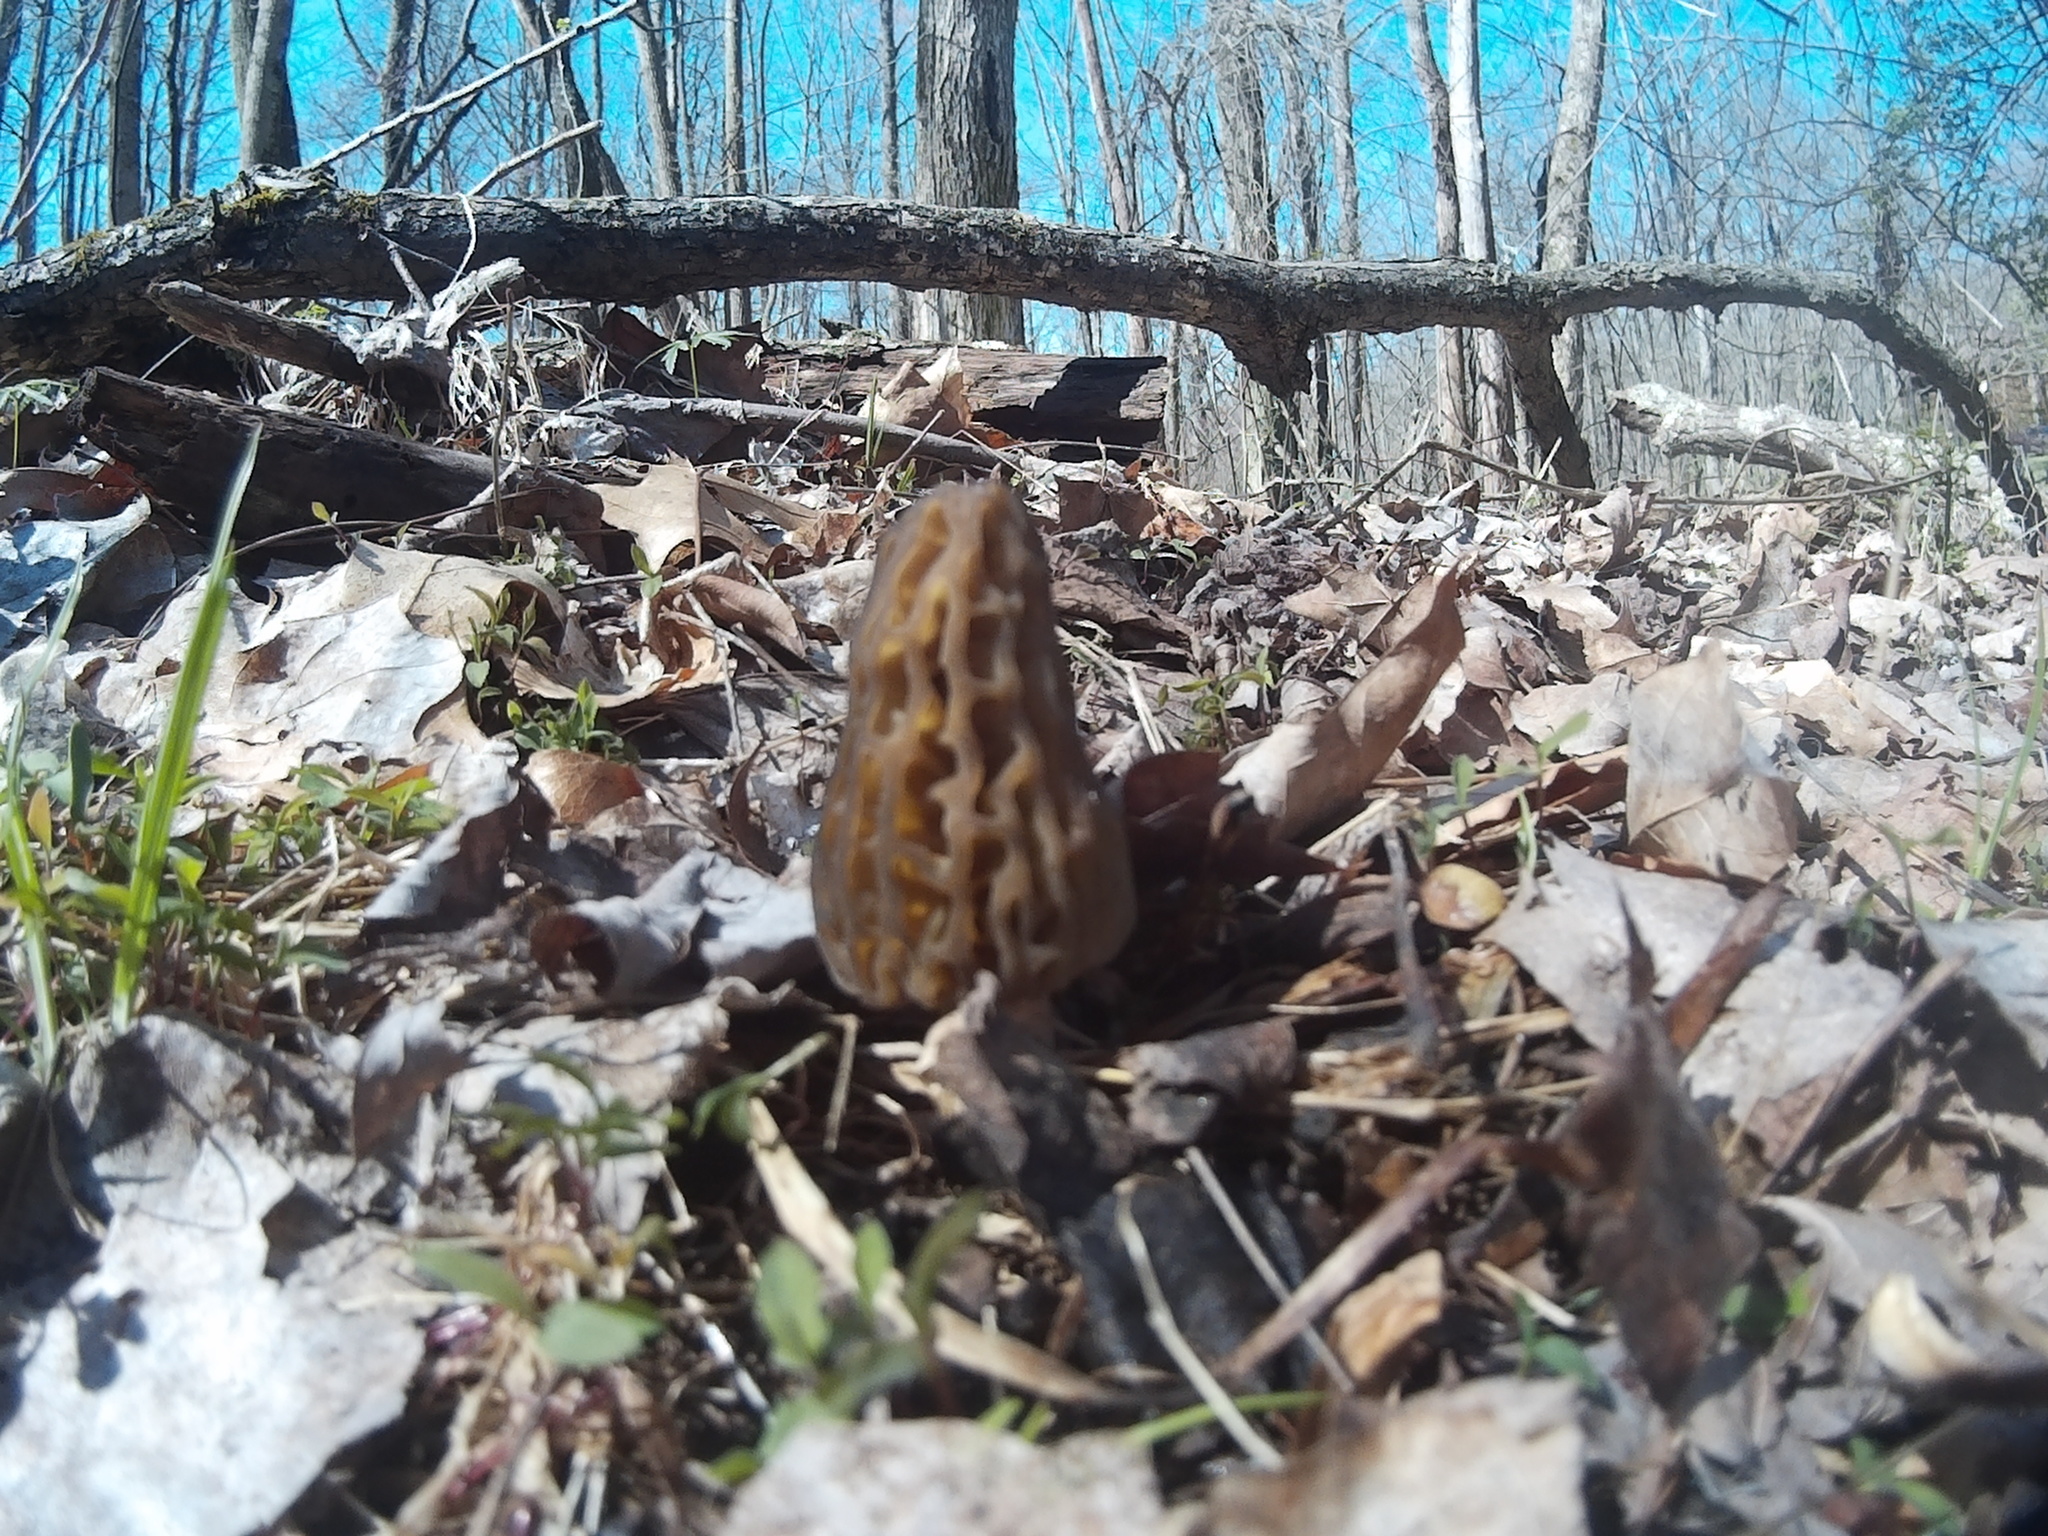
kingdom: Fungi
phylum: Ascomycota
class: Pezizomycetes
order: Pezizales
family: Morchellaceae
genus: Morchella
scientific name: Morchella angusticeps
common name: Black morel
